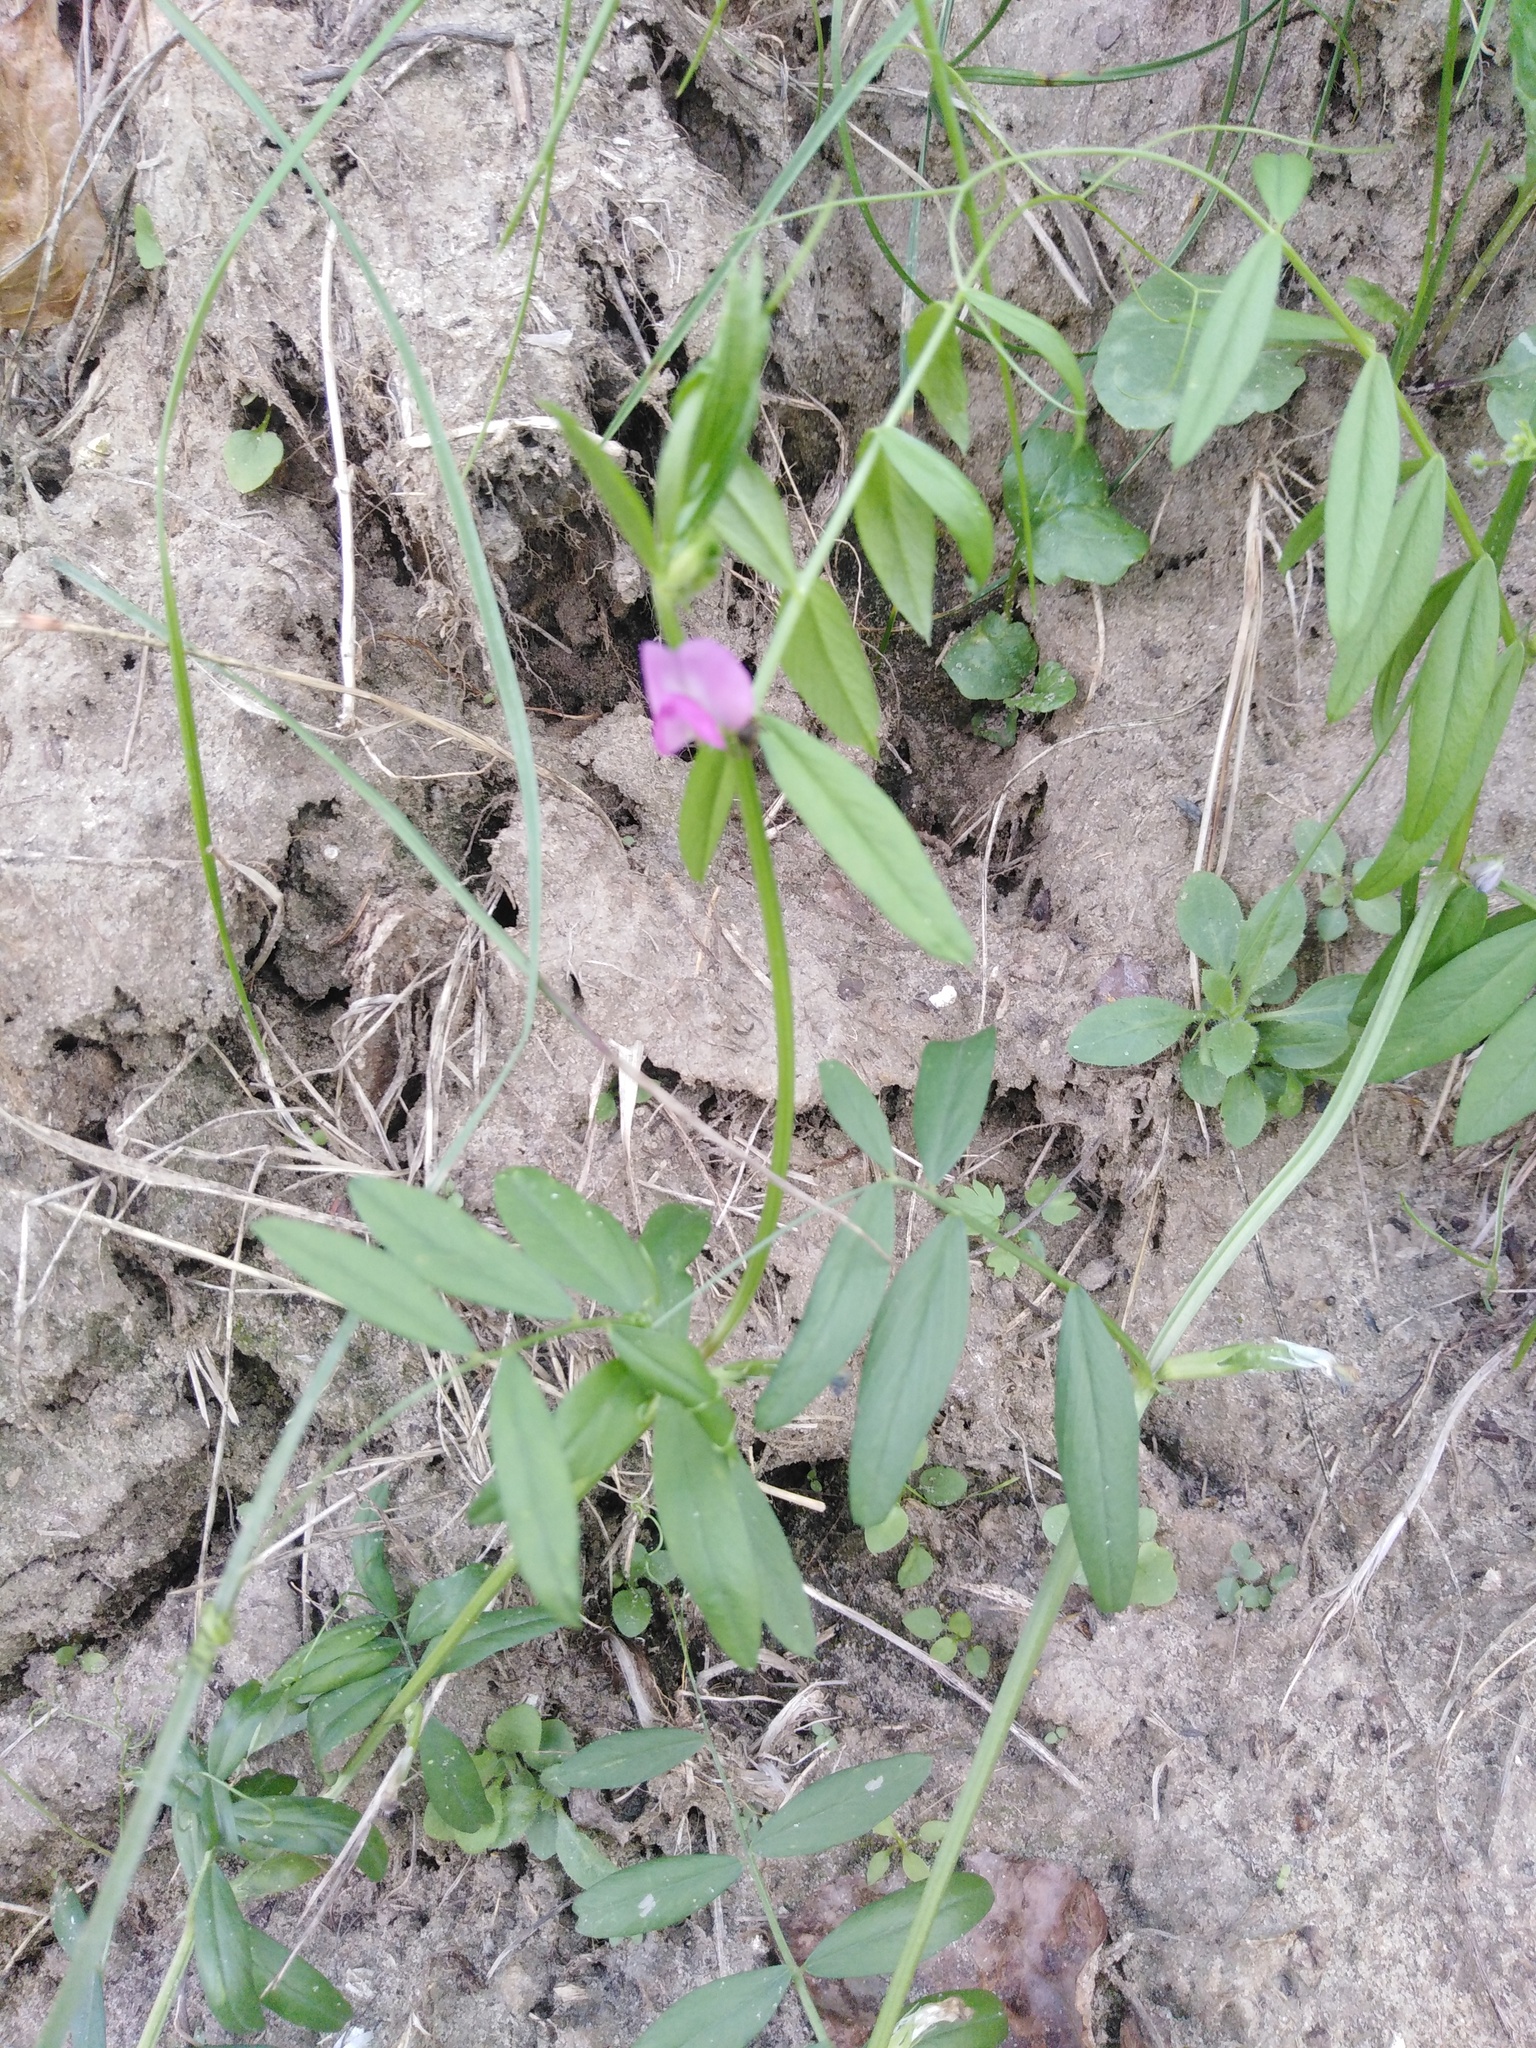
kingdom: Plantae
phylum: Tracheophyta
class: Magnoliopsida
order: Fabales
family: Fabaceae
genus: Vicia
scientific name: Vicia sativa
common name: Garden vetch
